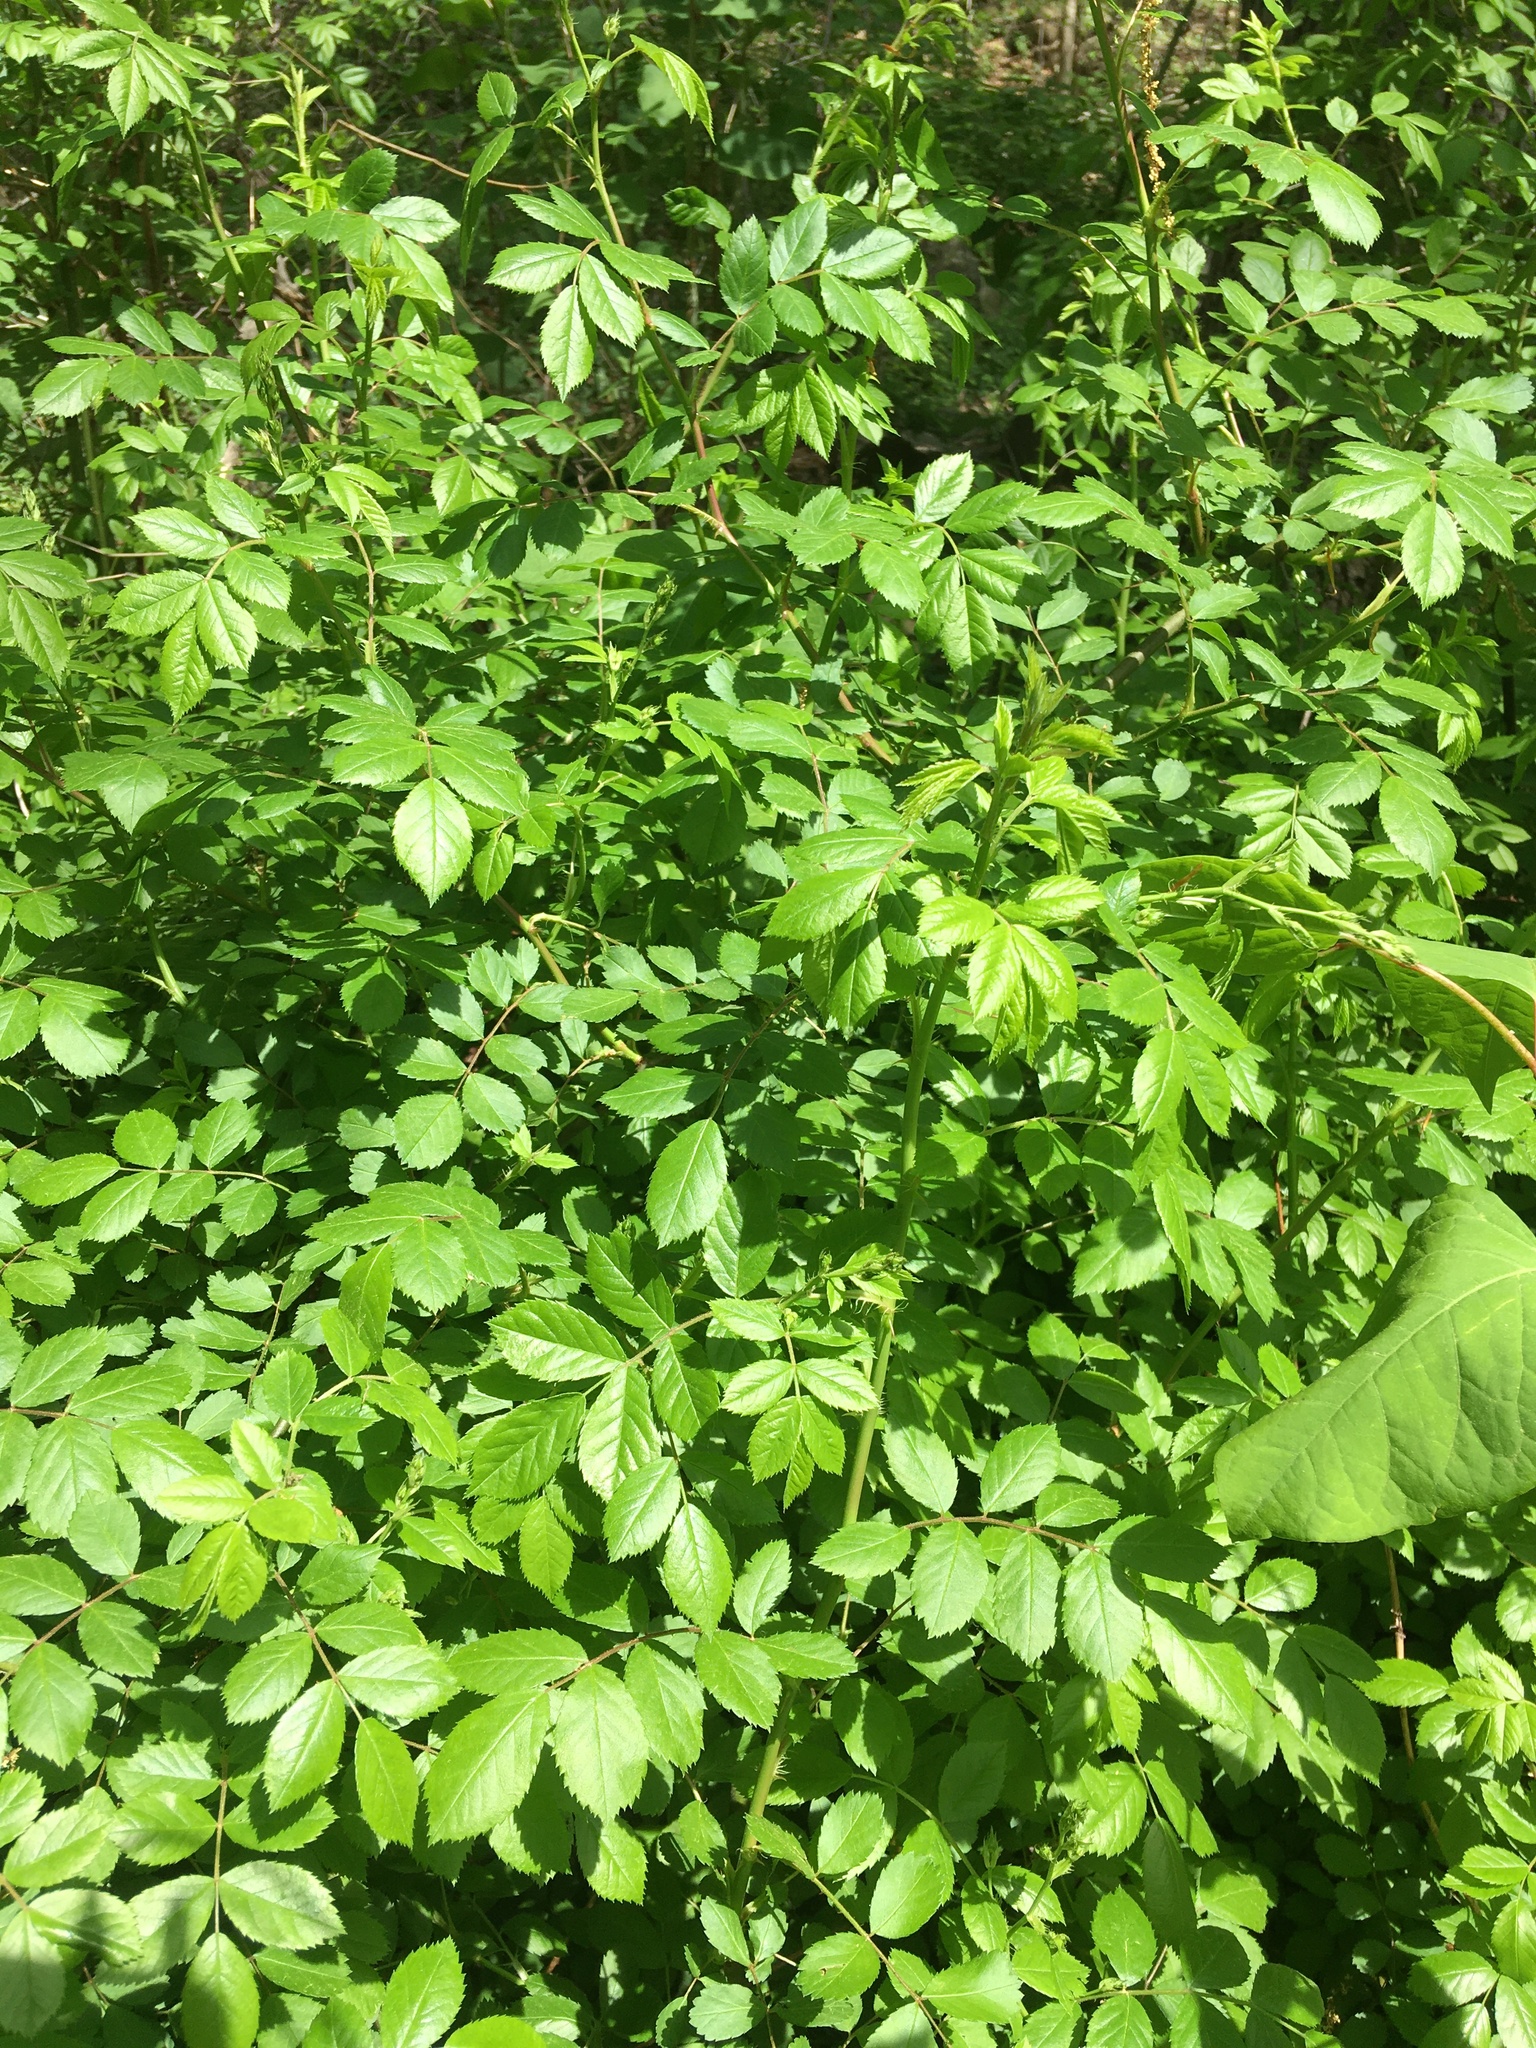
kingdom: Plantae
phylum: Tracheophyta
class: Magnoliopsida
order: Rosales
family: Rosaceae
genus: Rosa
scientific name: Rosa multiflora
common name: Multiflora rose
